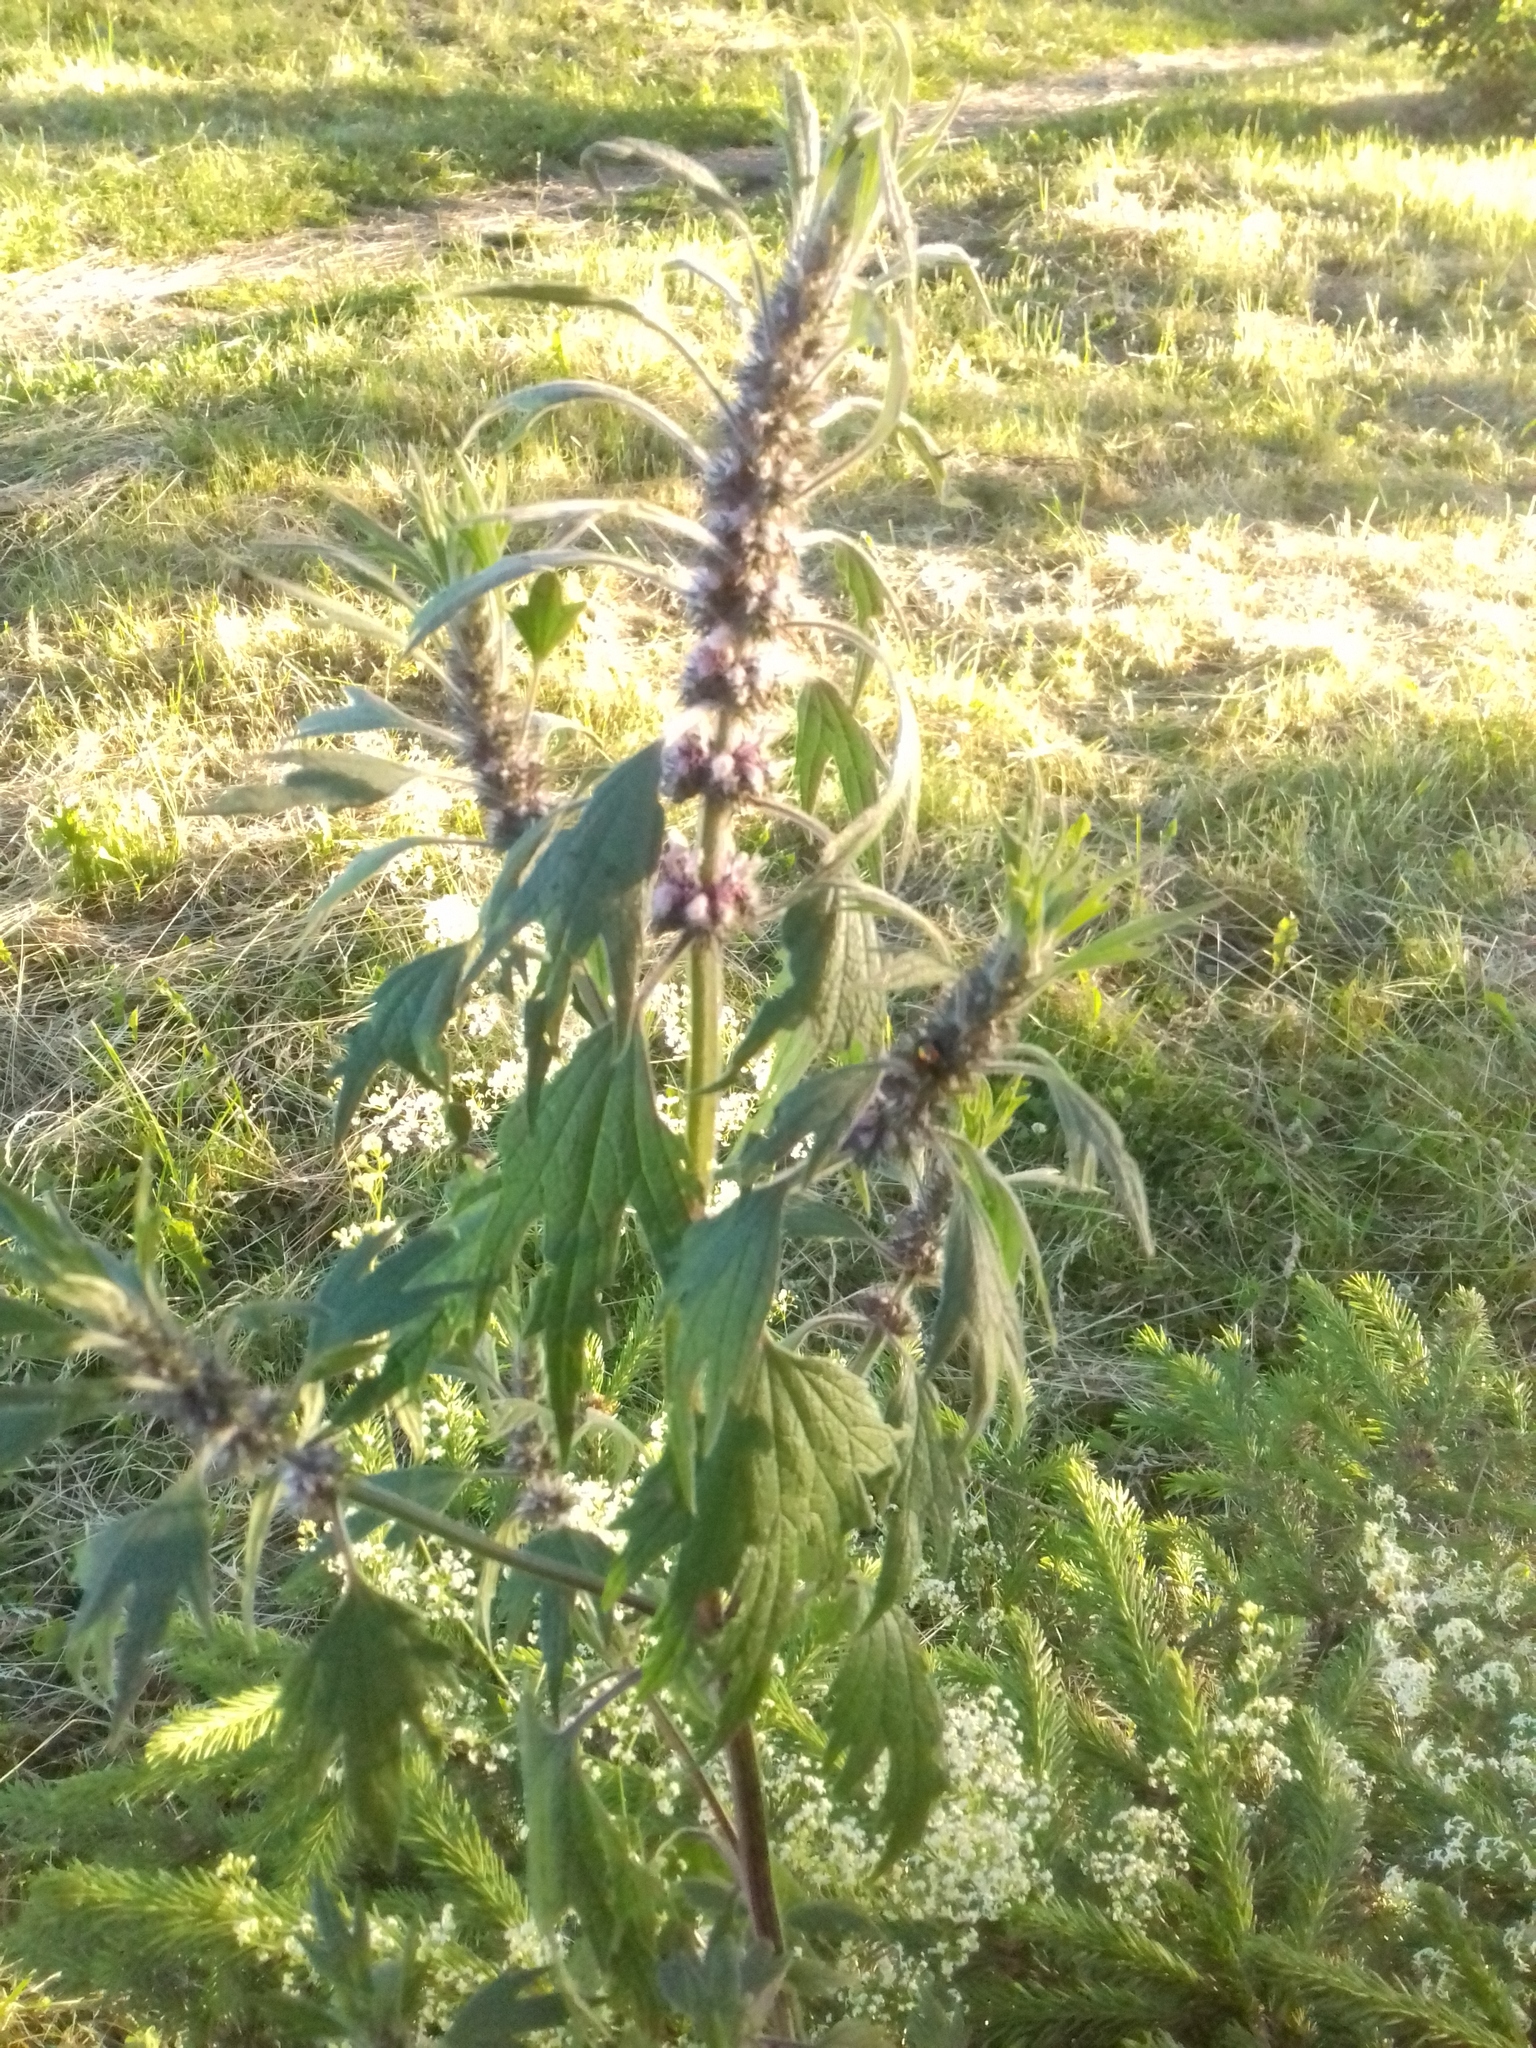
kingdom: Plantae
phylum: Tracheophyta
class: Magnoliopsida
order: Lamiales
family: Lamiaceae
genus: Leonurus
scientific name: Leonurus quinquelobatus
